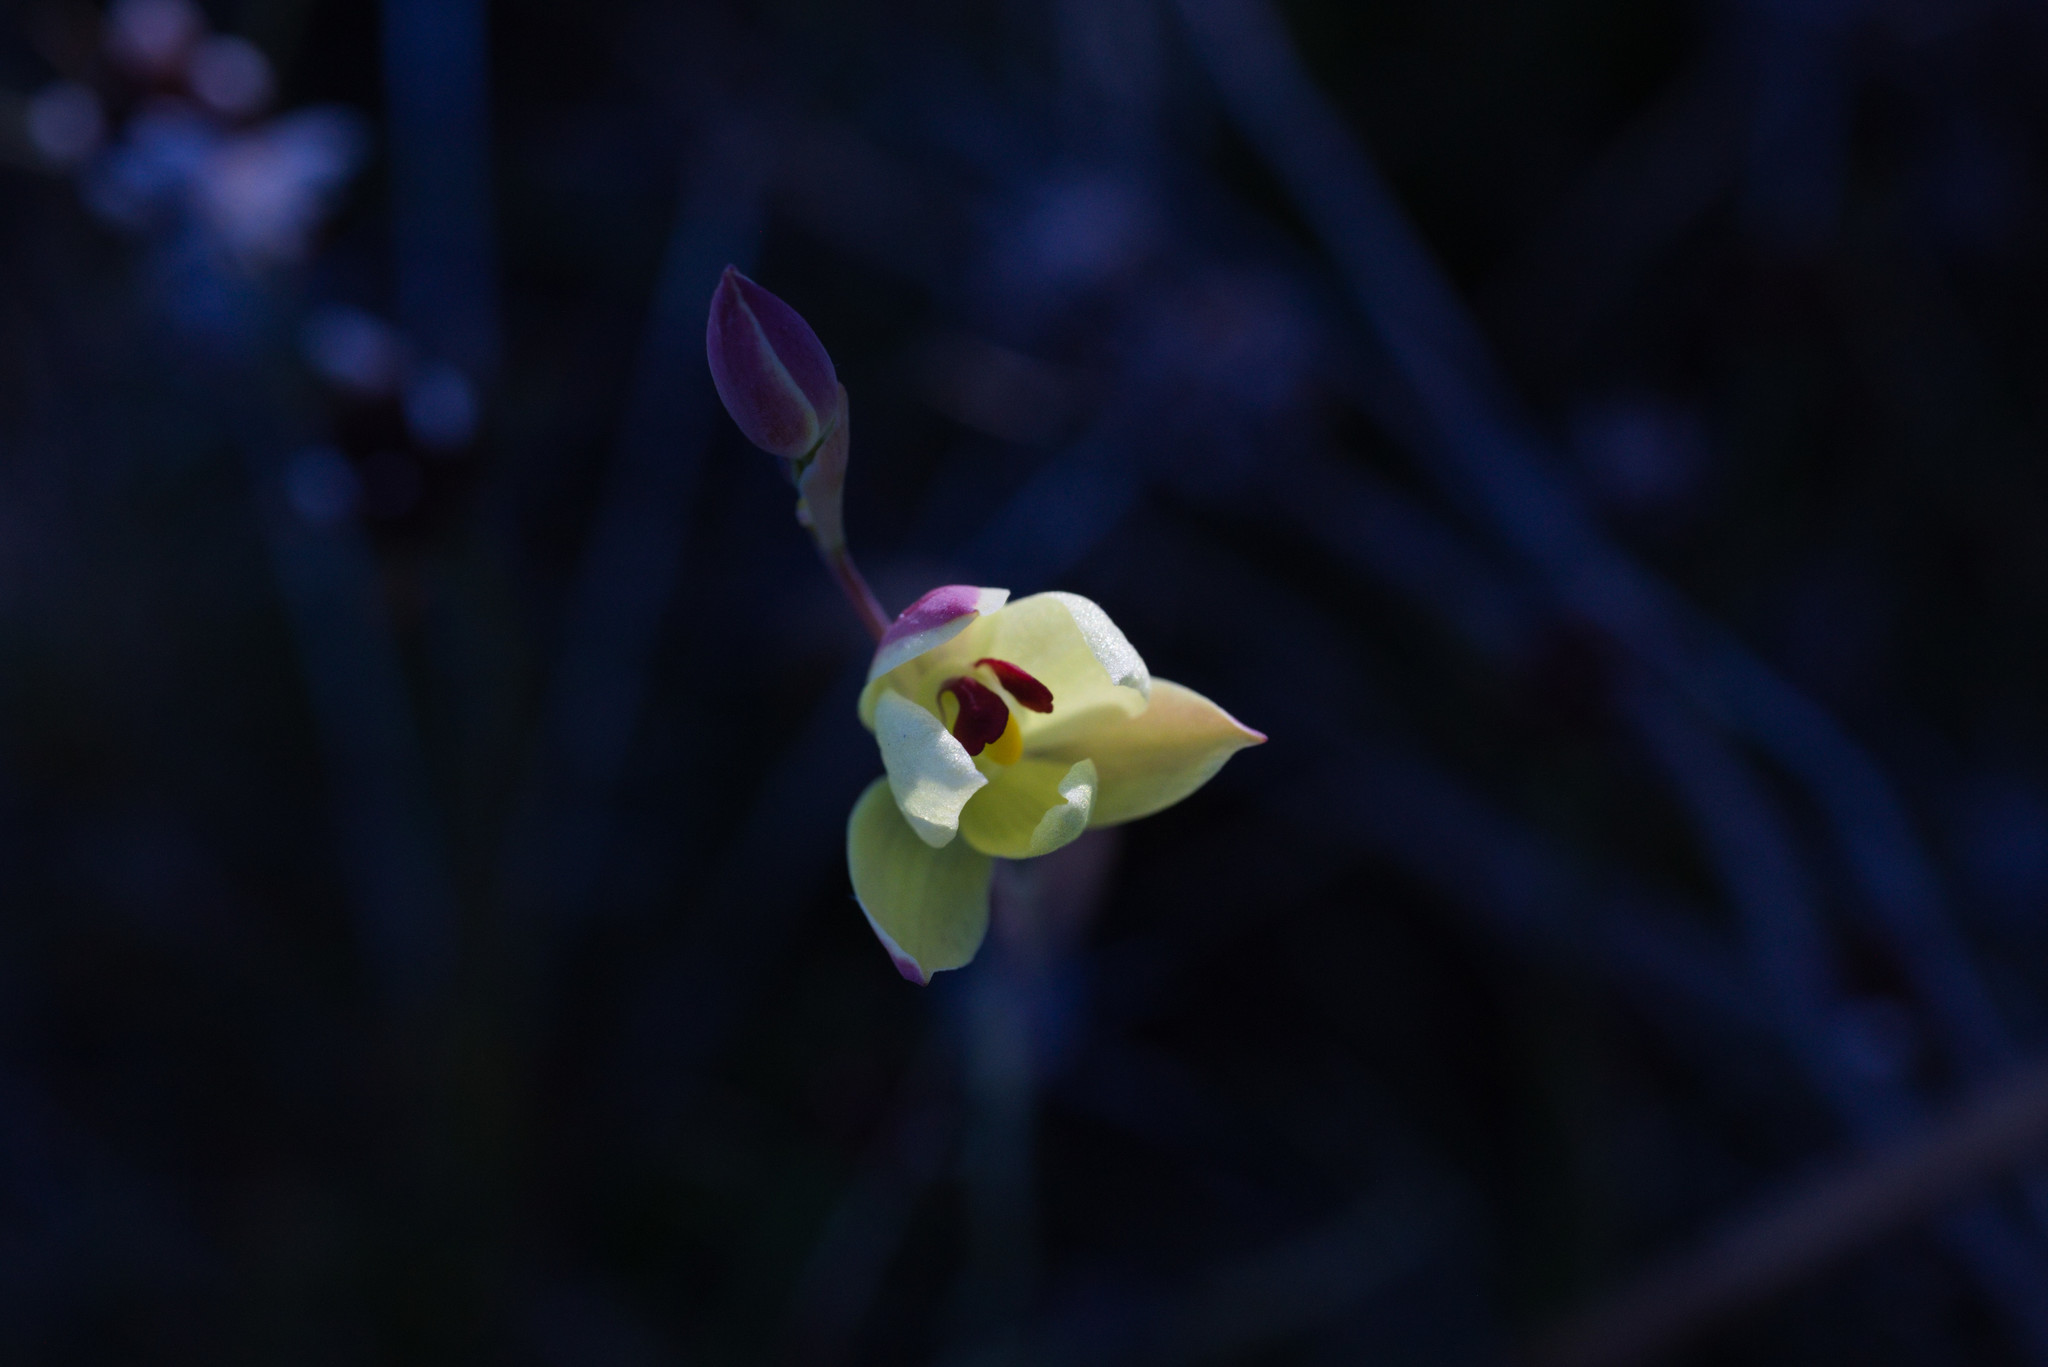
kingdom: Plantae
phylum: Tracheophyta
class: Liliopsida
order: Asparagales
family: Orchidaceae
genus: Thelymitra
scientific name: Thelymitra antennifera
